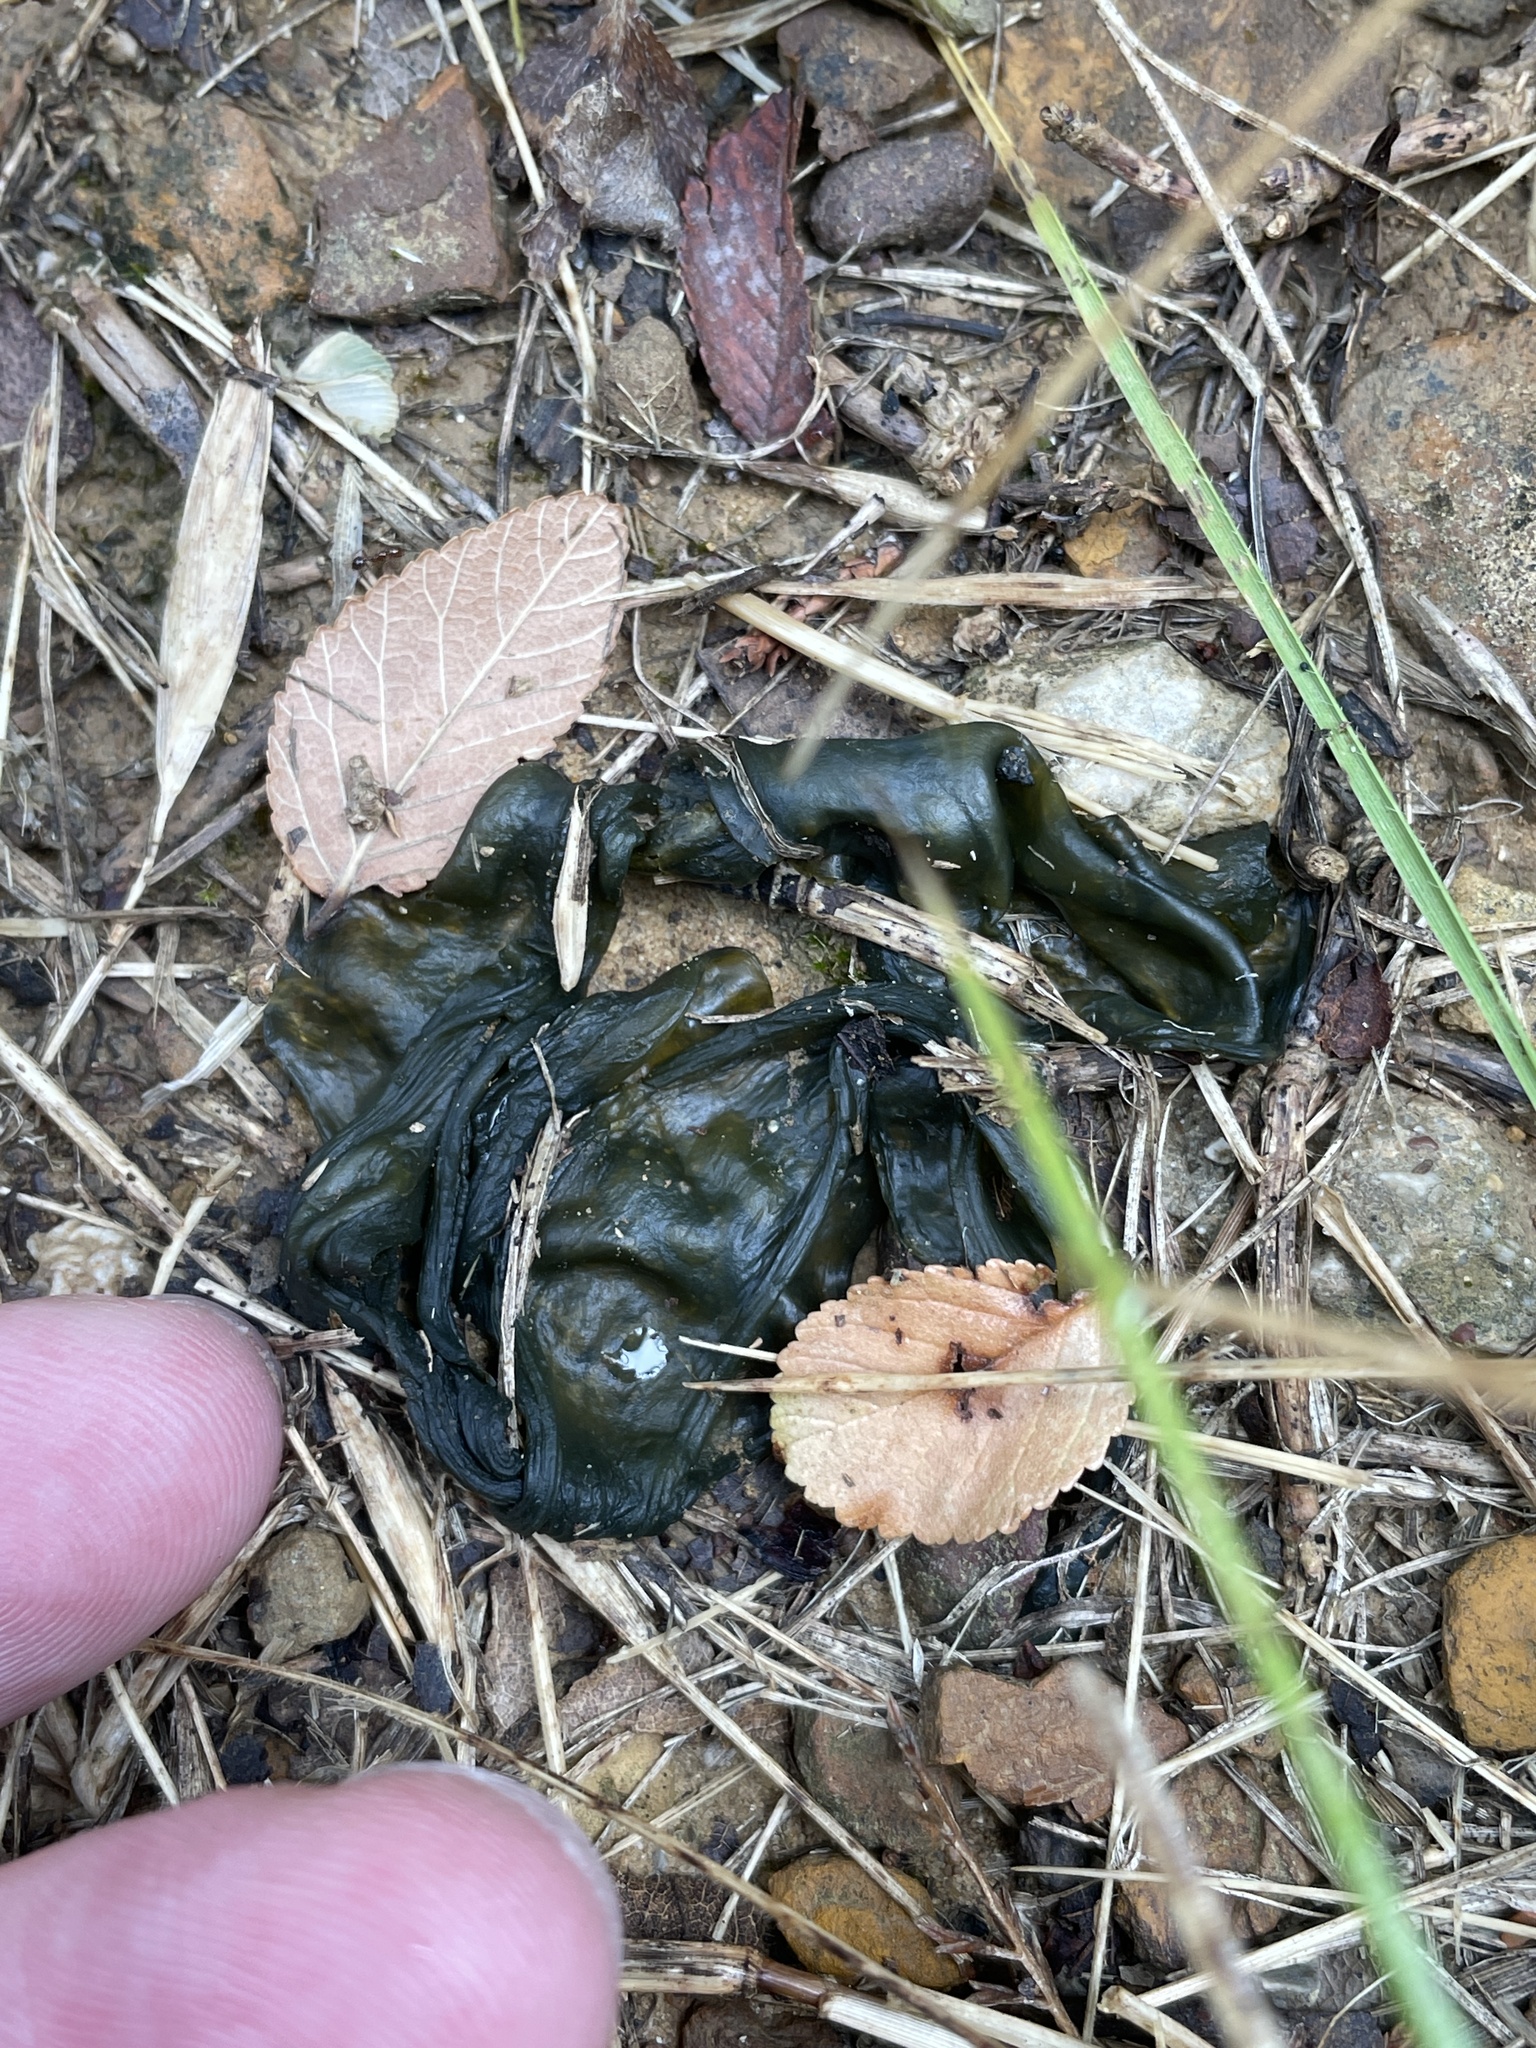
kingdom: Bacteria
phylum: Cyanobacteria
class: Cyanobacteriia
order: Cyanobacteriales
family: Nostocaceae
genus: Nostoc
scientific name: Nostoc commune
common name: Star jelly
